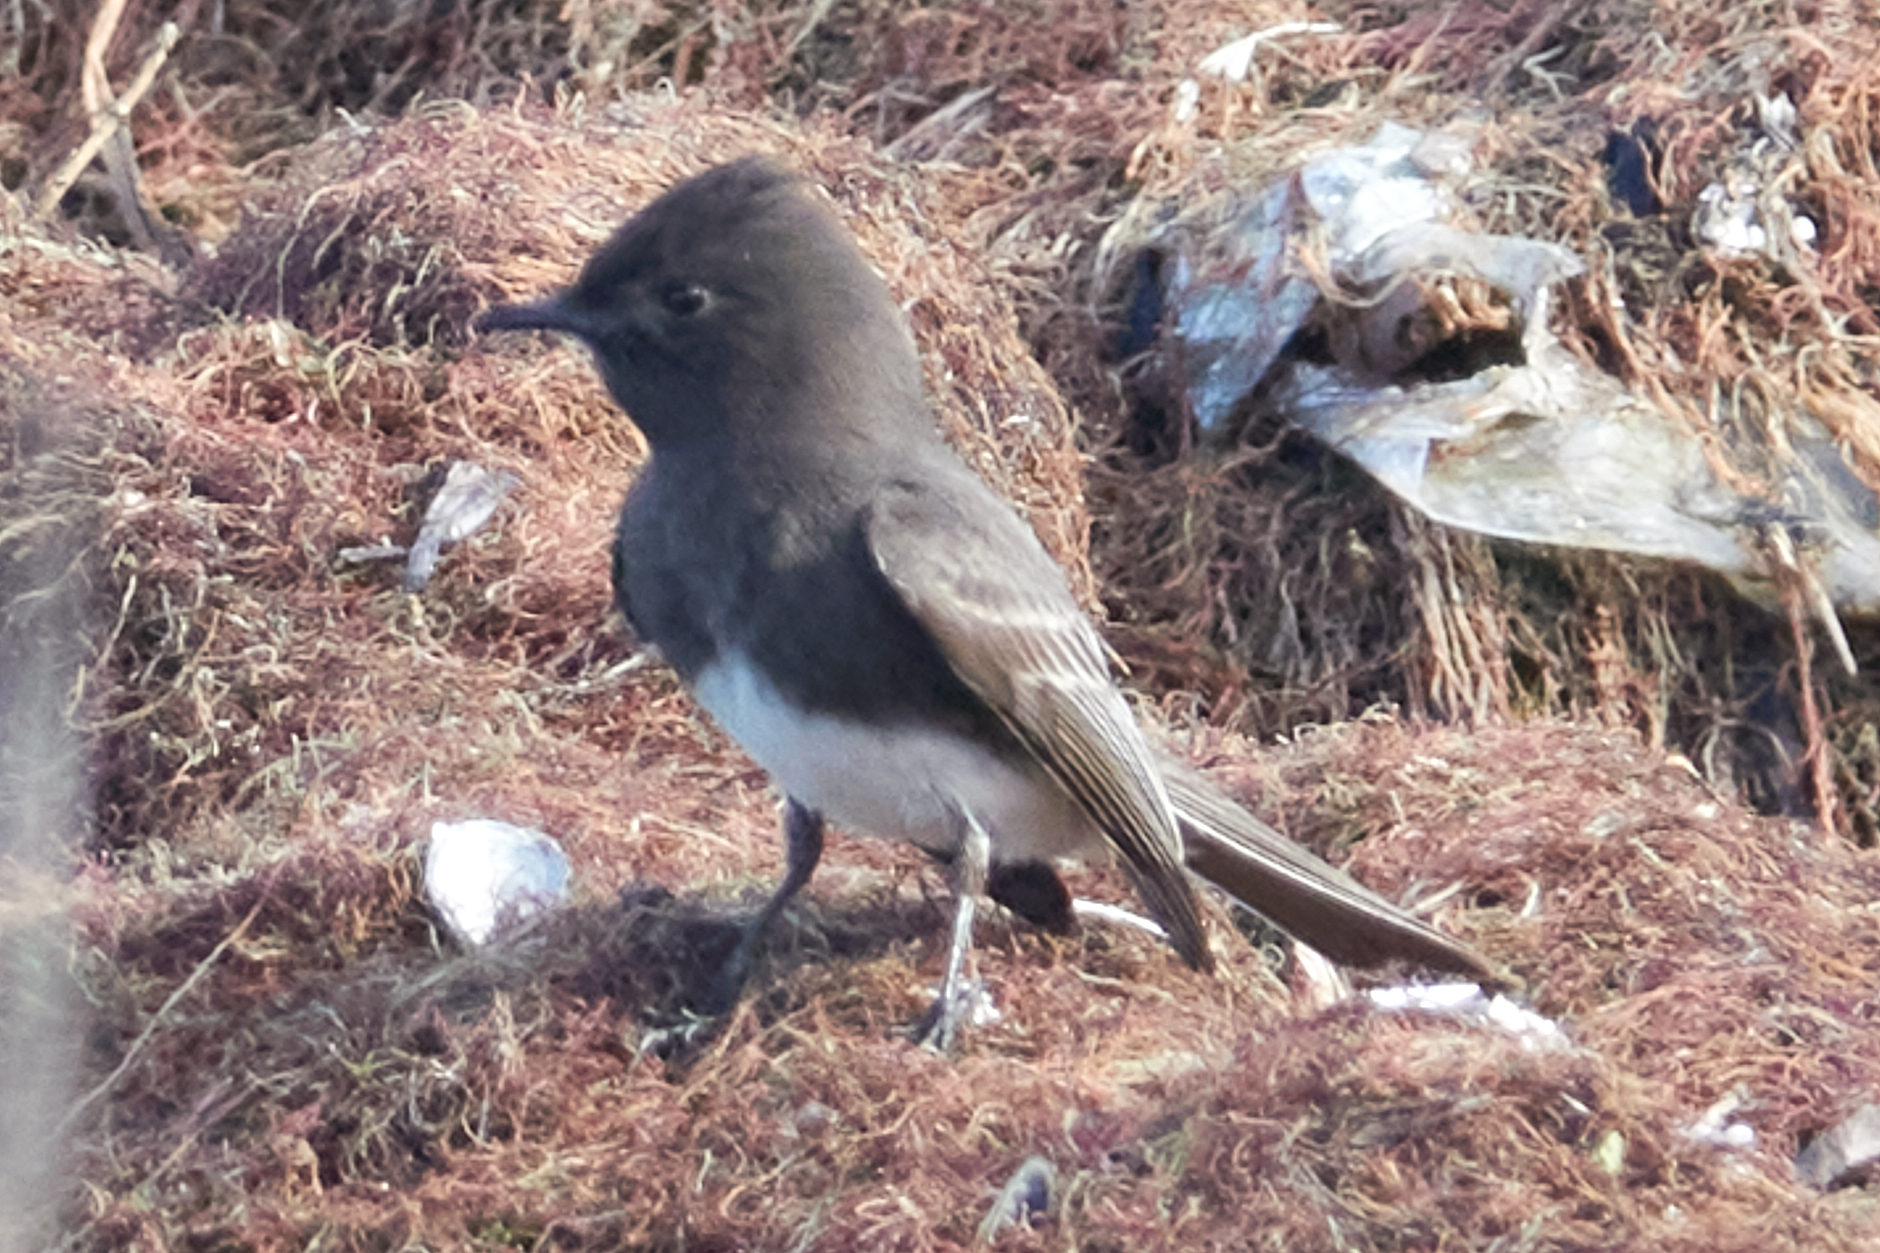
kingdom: Animalia
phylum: Chordata
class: Aves
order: Passeriformes
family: Tyrannidae
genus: Sayornis
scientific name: Sayornis nigricans
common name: Black phoebe
